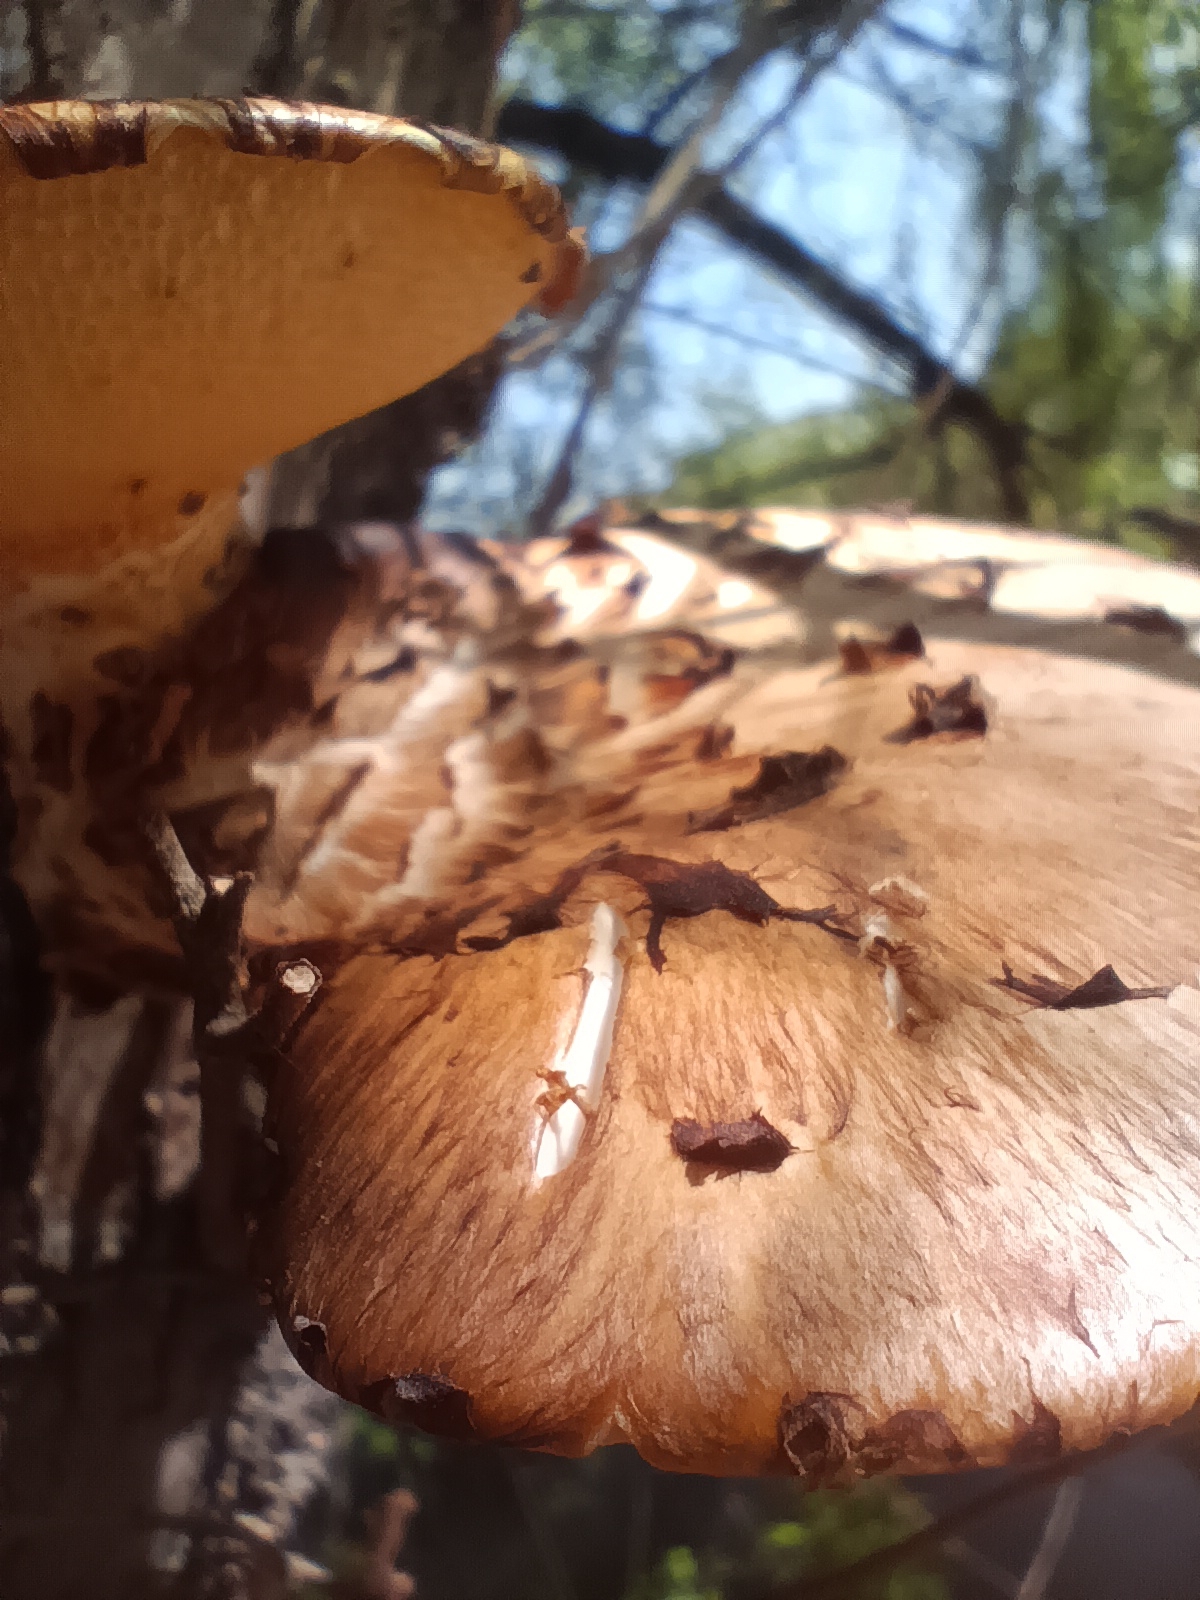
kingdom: Fungi
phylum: Basidiomycota
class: Agaricomycetes
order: Polyporales
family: Polyporaceae
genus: Cerioporus
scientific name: Cerioporus squamosus
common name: Dryad's saddle
